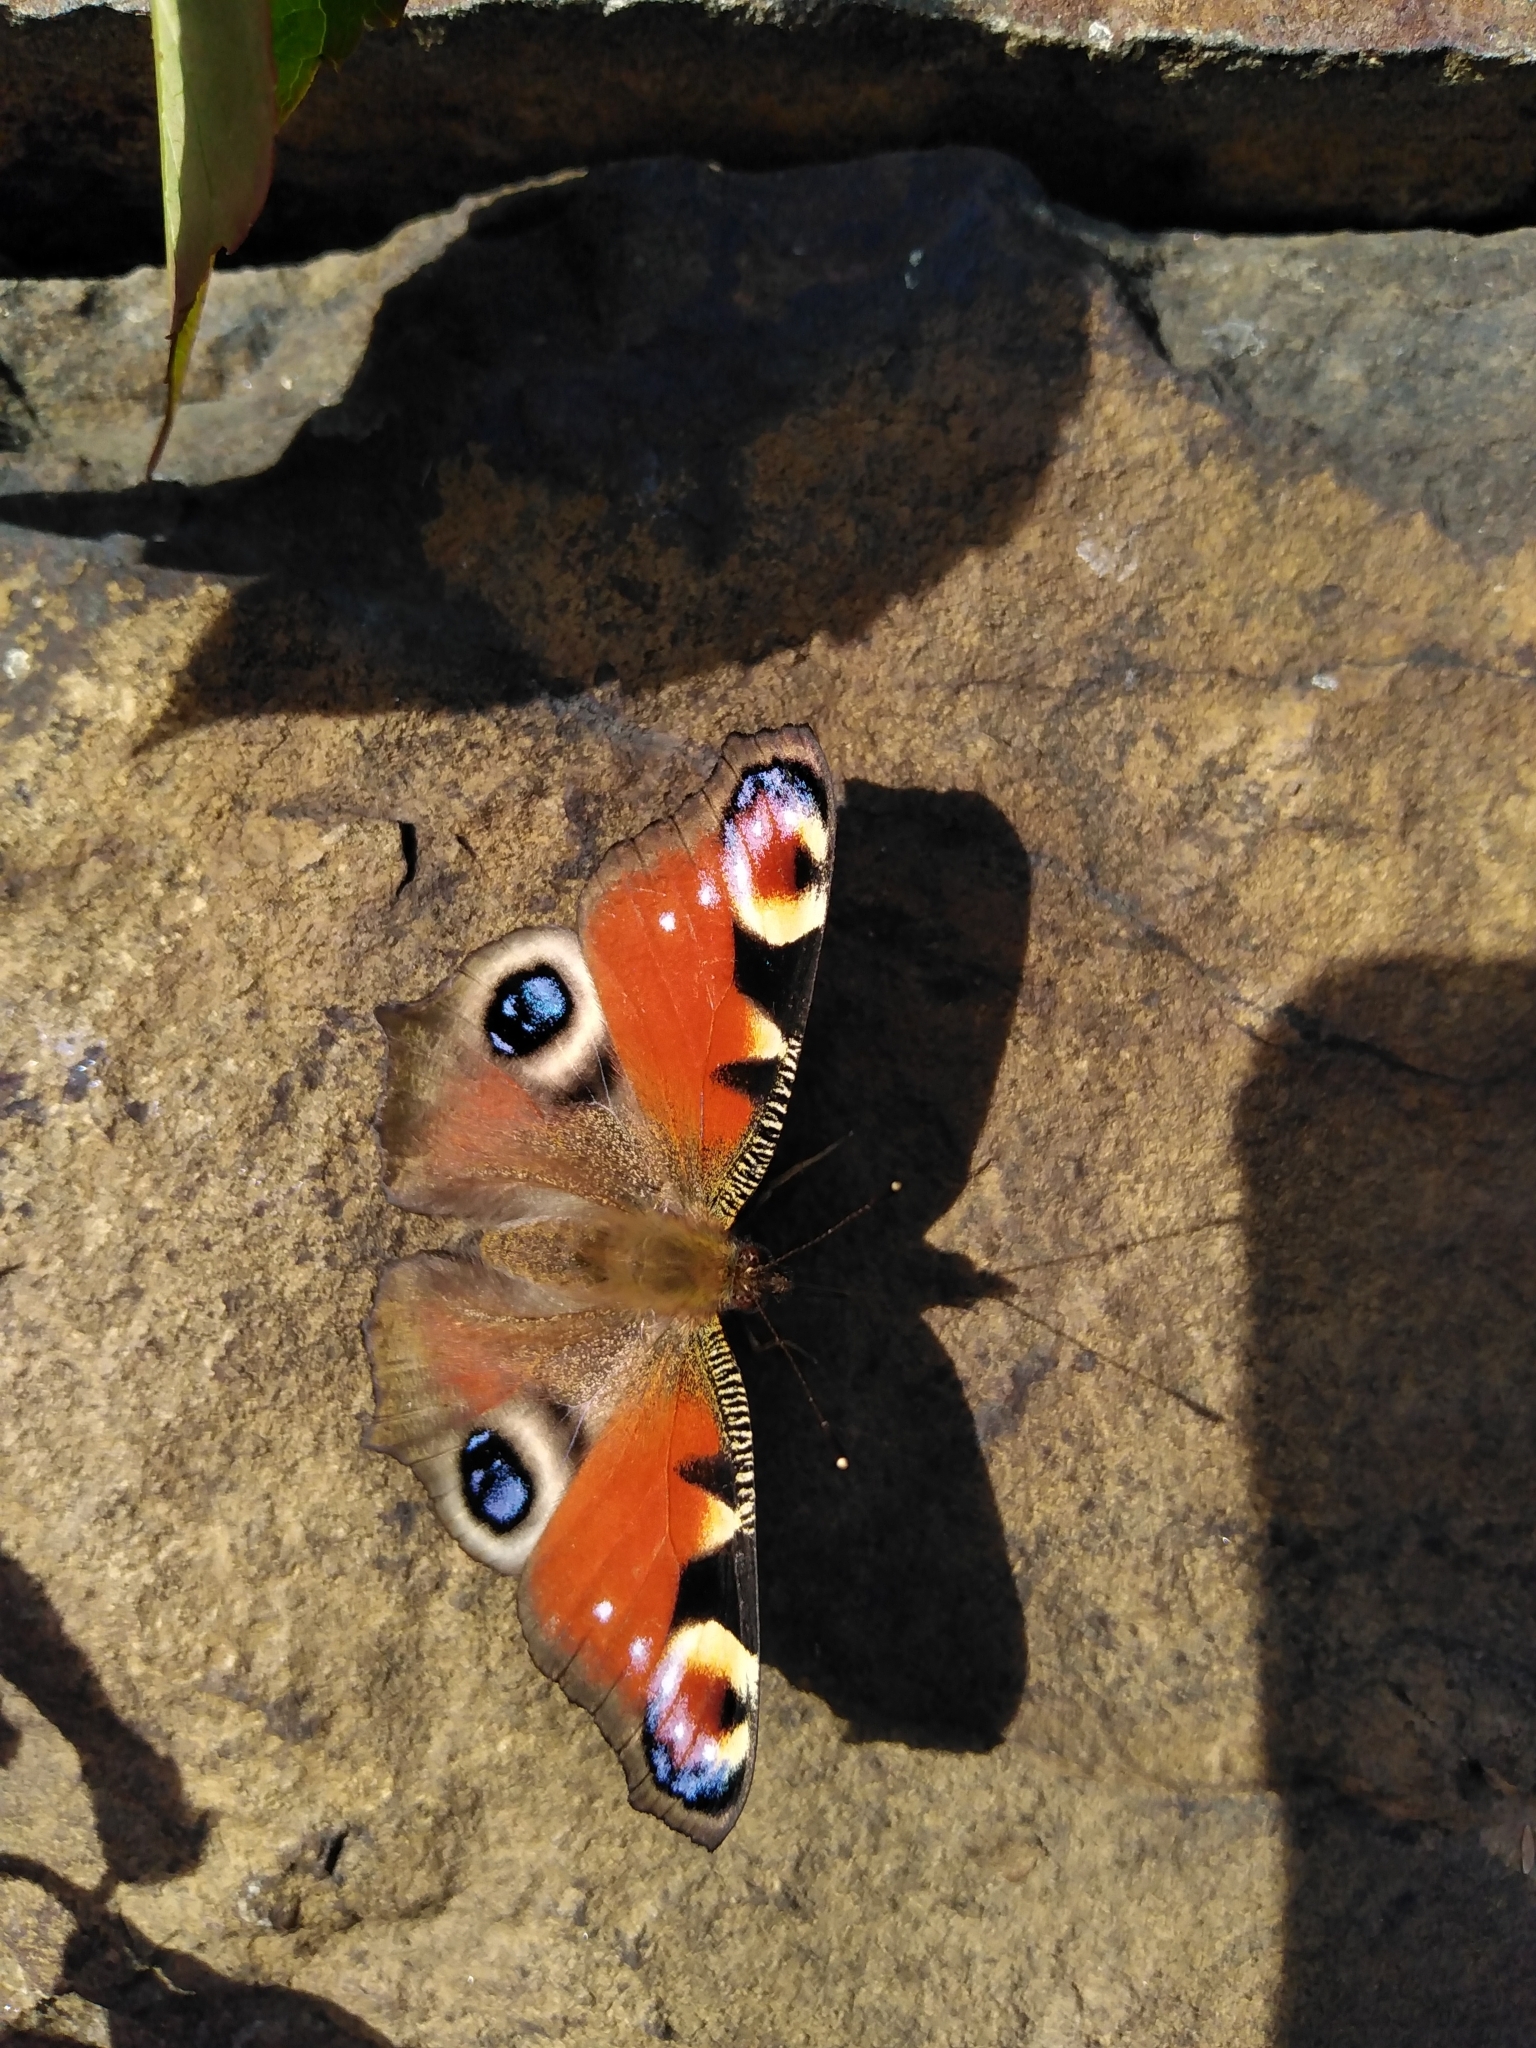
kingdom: Animalia
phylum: Arthropoda
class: Insecta
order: Lepidoptera
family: Nymphalidae
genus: Aglais
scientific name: Aglais io
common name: Peacock
